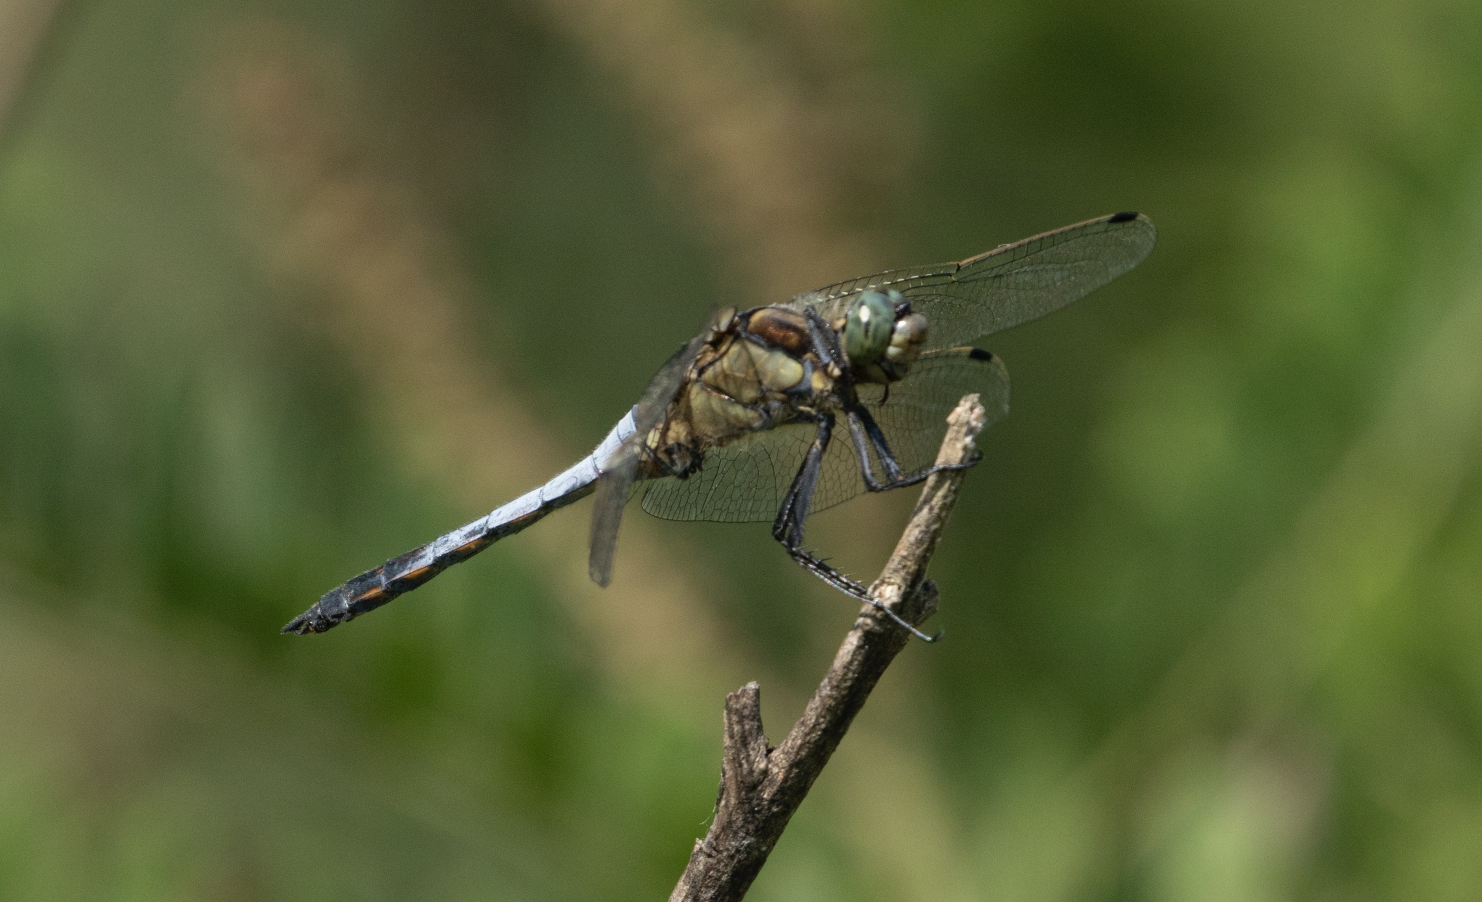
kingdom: Animalia
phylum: Arthropoda
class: Insecta
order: Odonata
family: Libellulidae
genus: Orthetrum
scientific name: Orthetrum cancellatum
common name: Black-tailed skimmer
